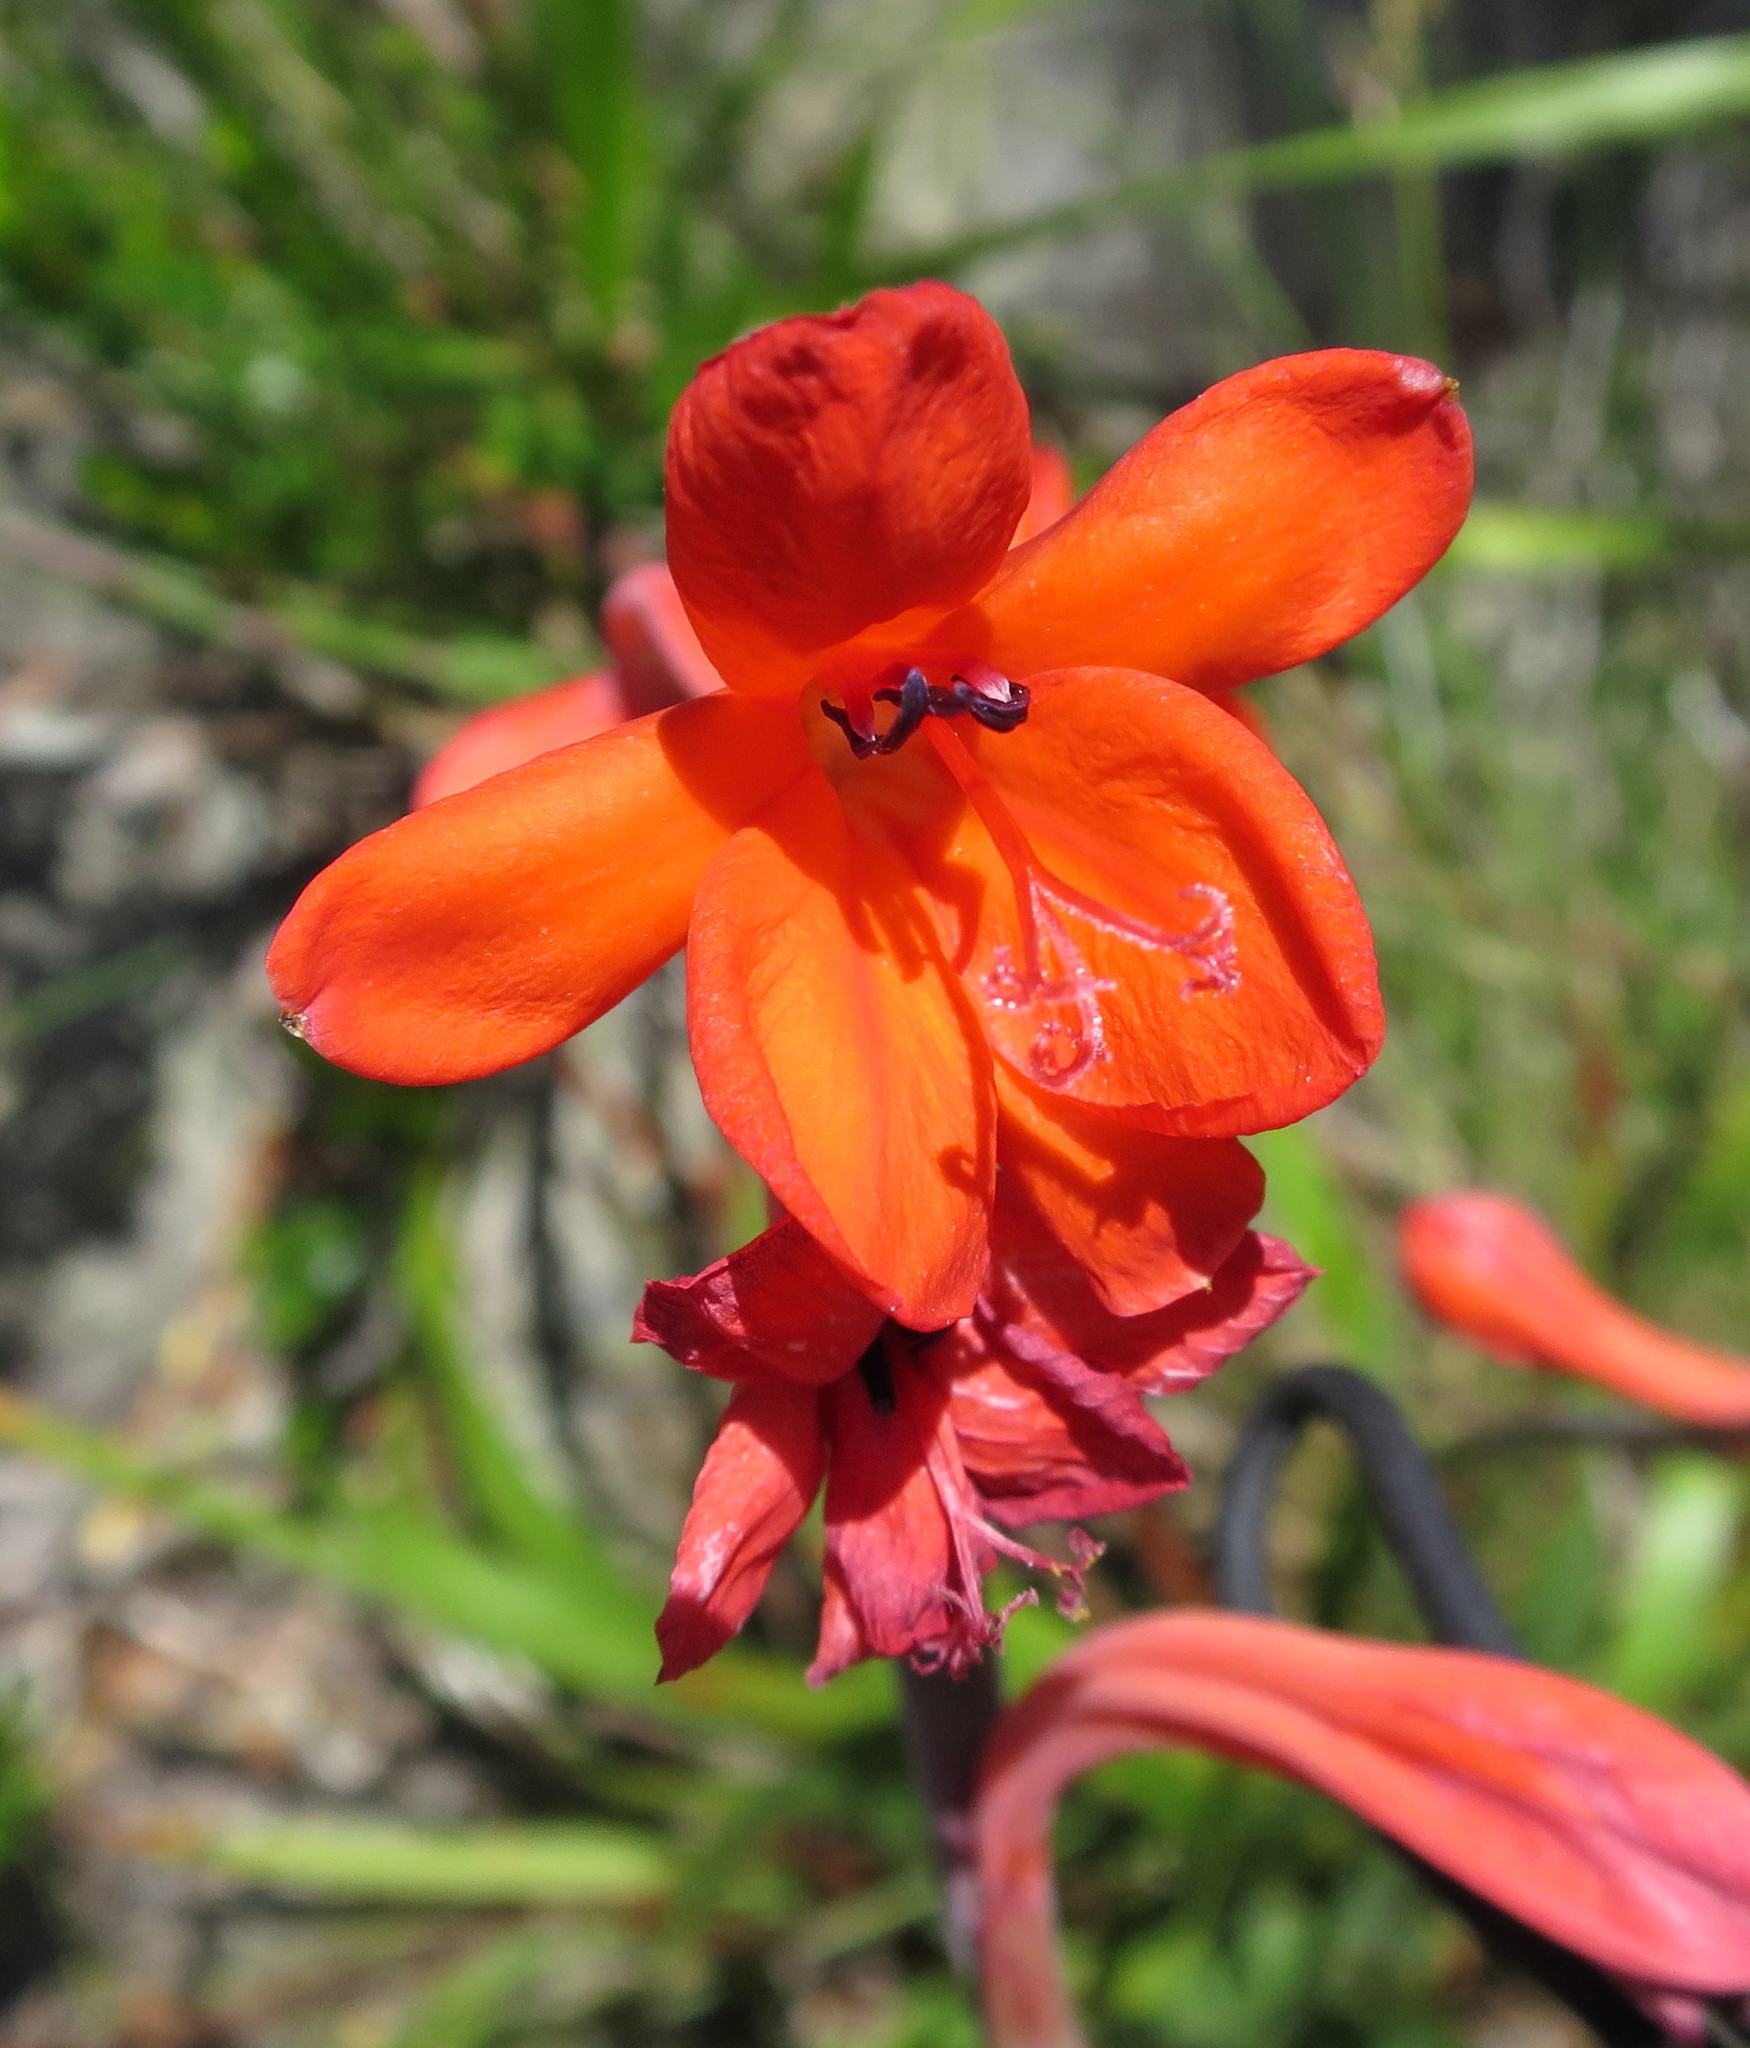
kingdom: Plantae
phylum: Tracheophyta
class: Liliopsida
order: Asparagales
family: Iridaceae
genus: Watsonia
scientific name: Watsonia schlechteri
